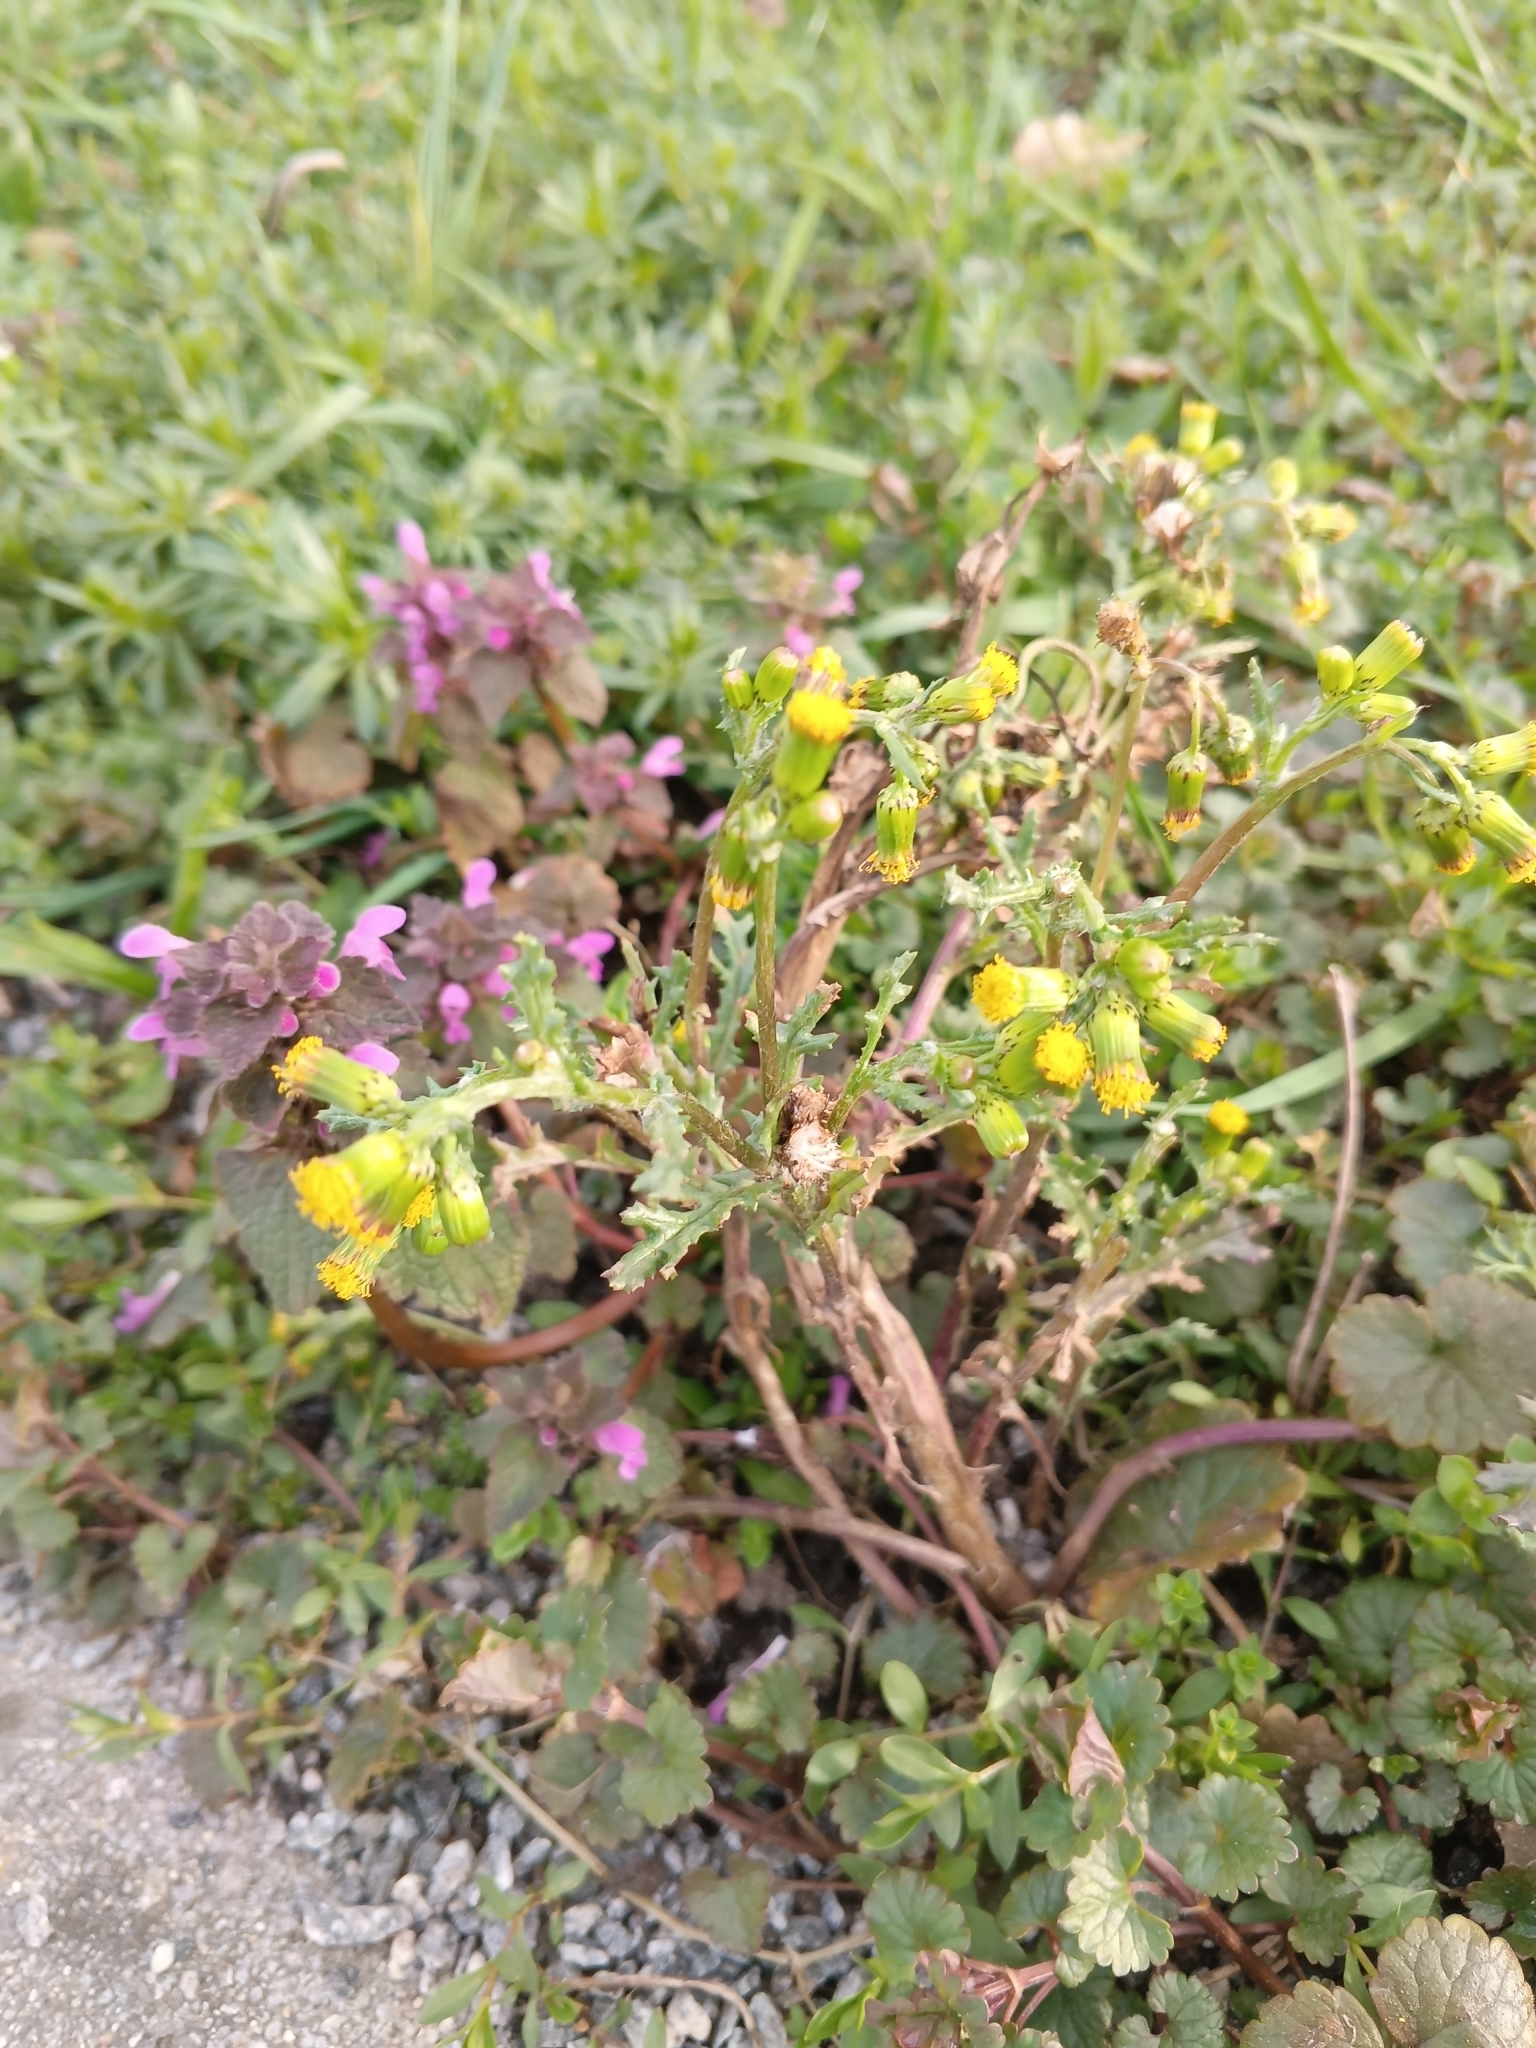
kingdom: Plantae
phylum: Tracheophyta
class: Magnoliopsida
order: Asterales
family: Asteraceae
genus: Senecio
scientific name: Senecio vulgaris
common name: Old-man-in-the-spring
